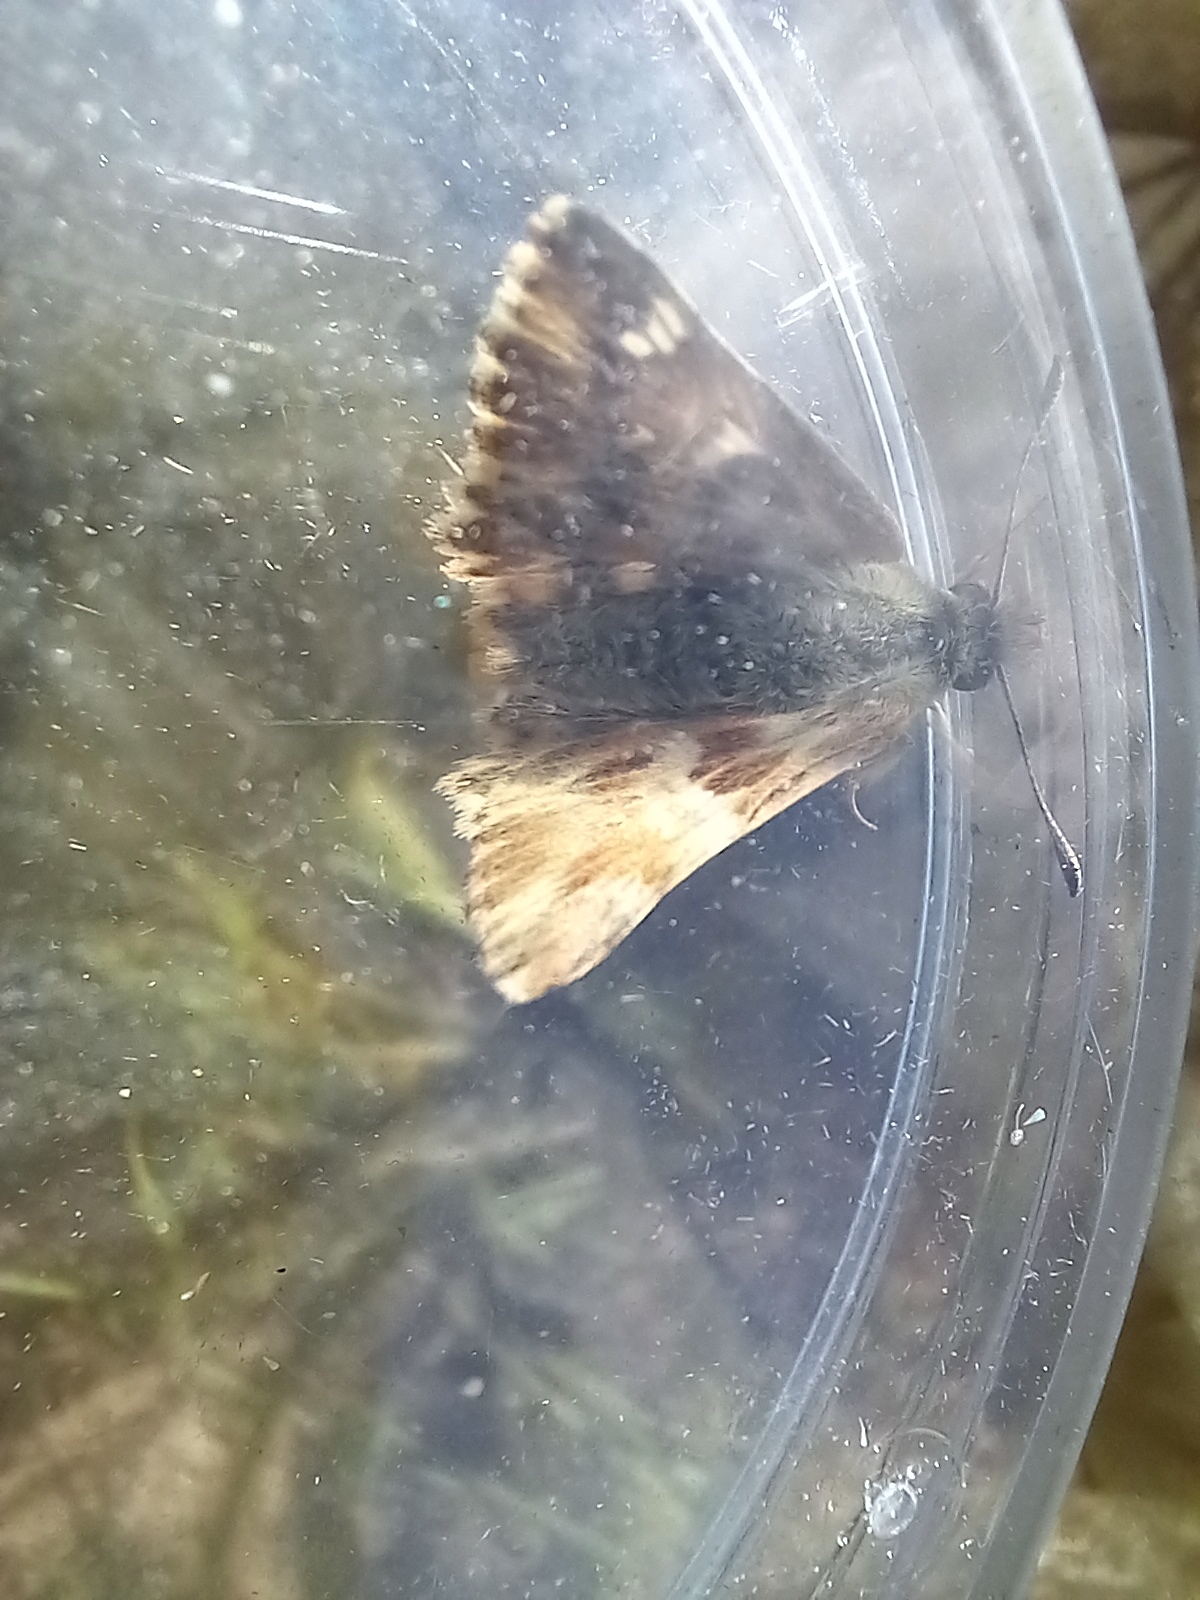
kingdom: Animalia
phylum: Arthropoda
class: Insecta
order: Lepidoptera
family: Hesperiidae
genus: Carcharodus
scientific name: Carcharodus lavatherae
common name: Marbled skipper
